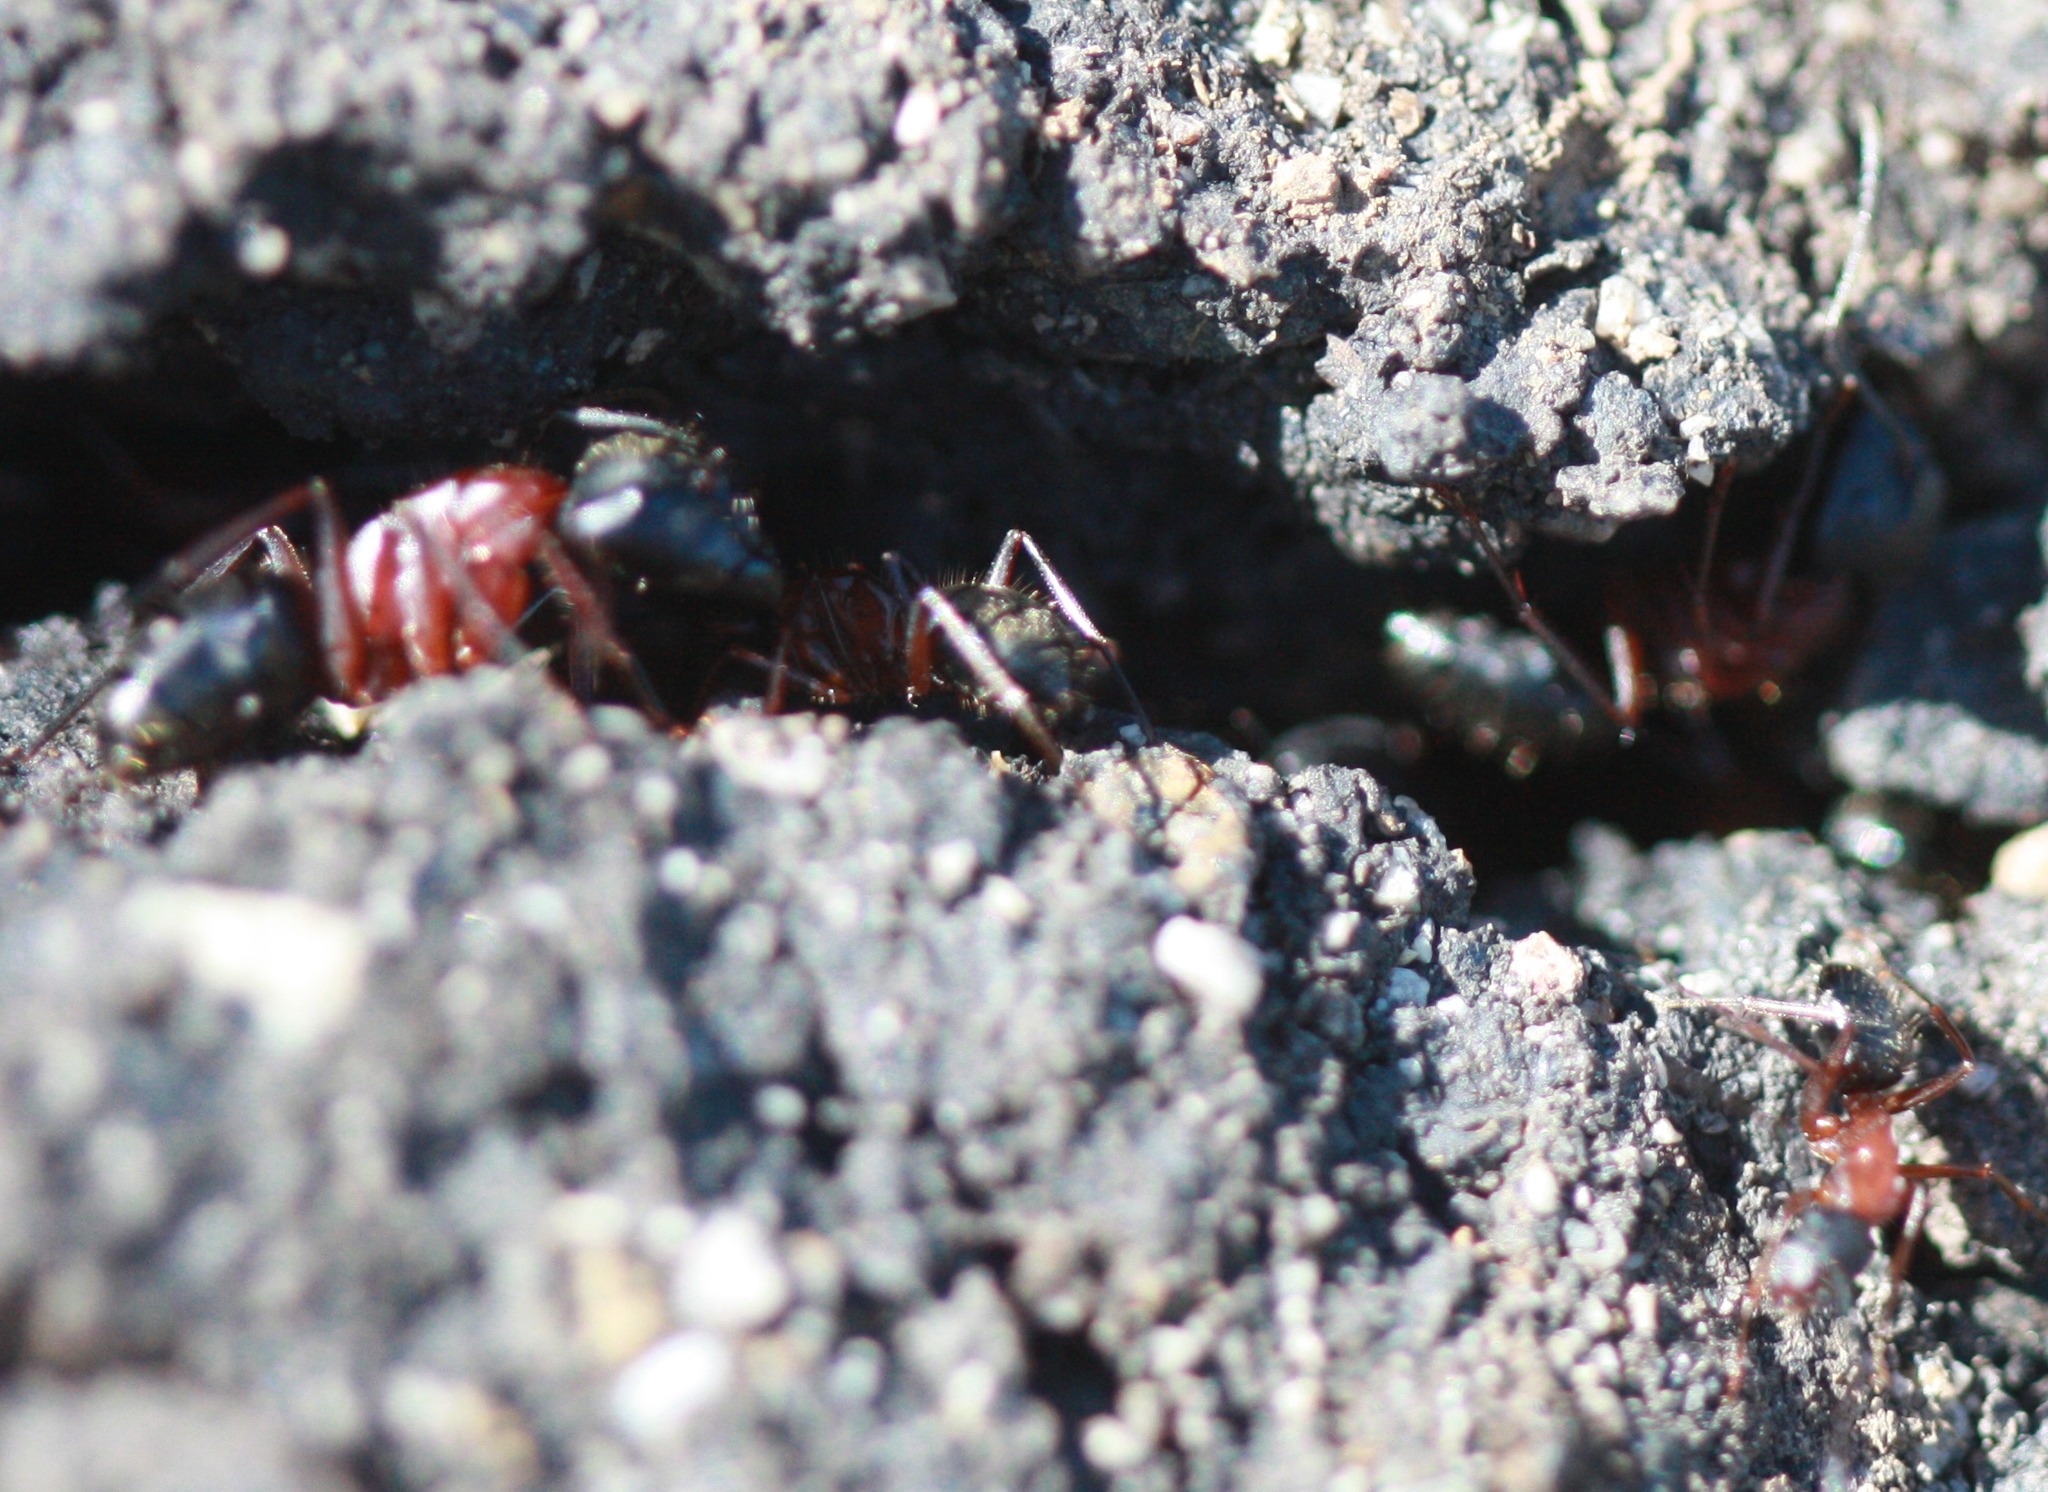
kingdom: Animalia
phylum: Arthropoda
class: Insecta
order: Hymenoptera
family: Formicidae
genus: Camponotus
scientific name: Camponotus vicinus
